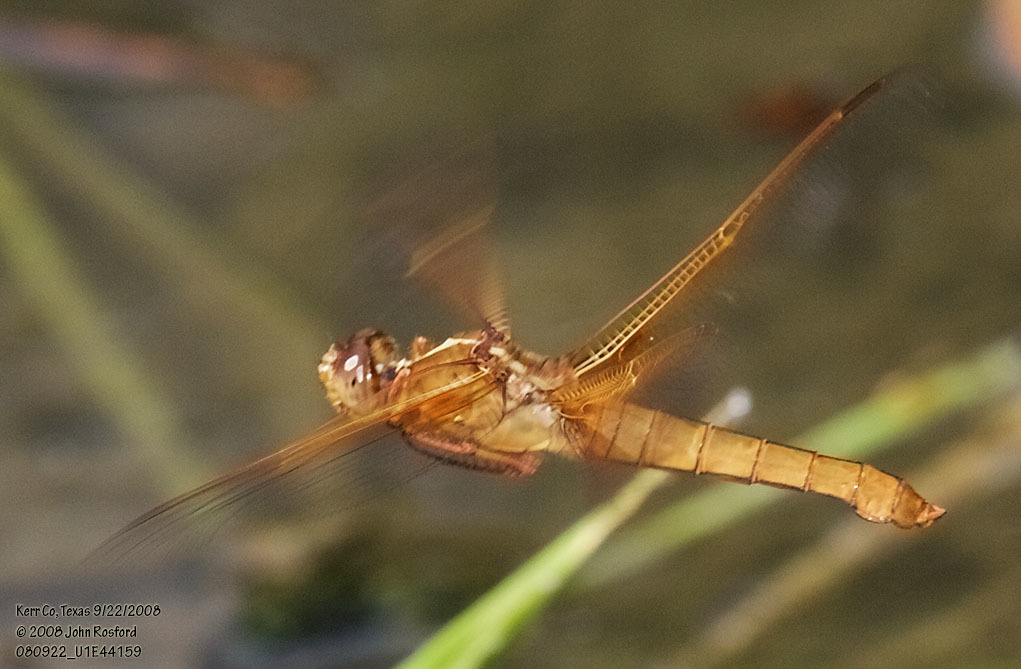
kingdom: Animalia
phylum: Arthropoda
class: Insecta
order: Odonata
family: Libellulidae
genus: Libellula
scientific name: Libellula saturata
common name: Flame skimmer
